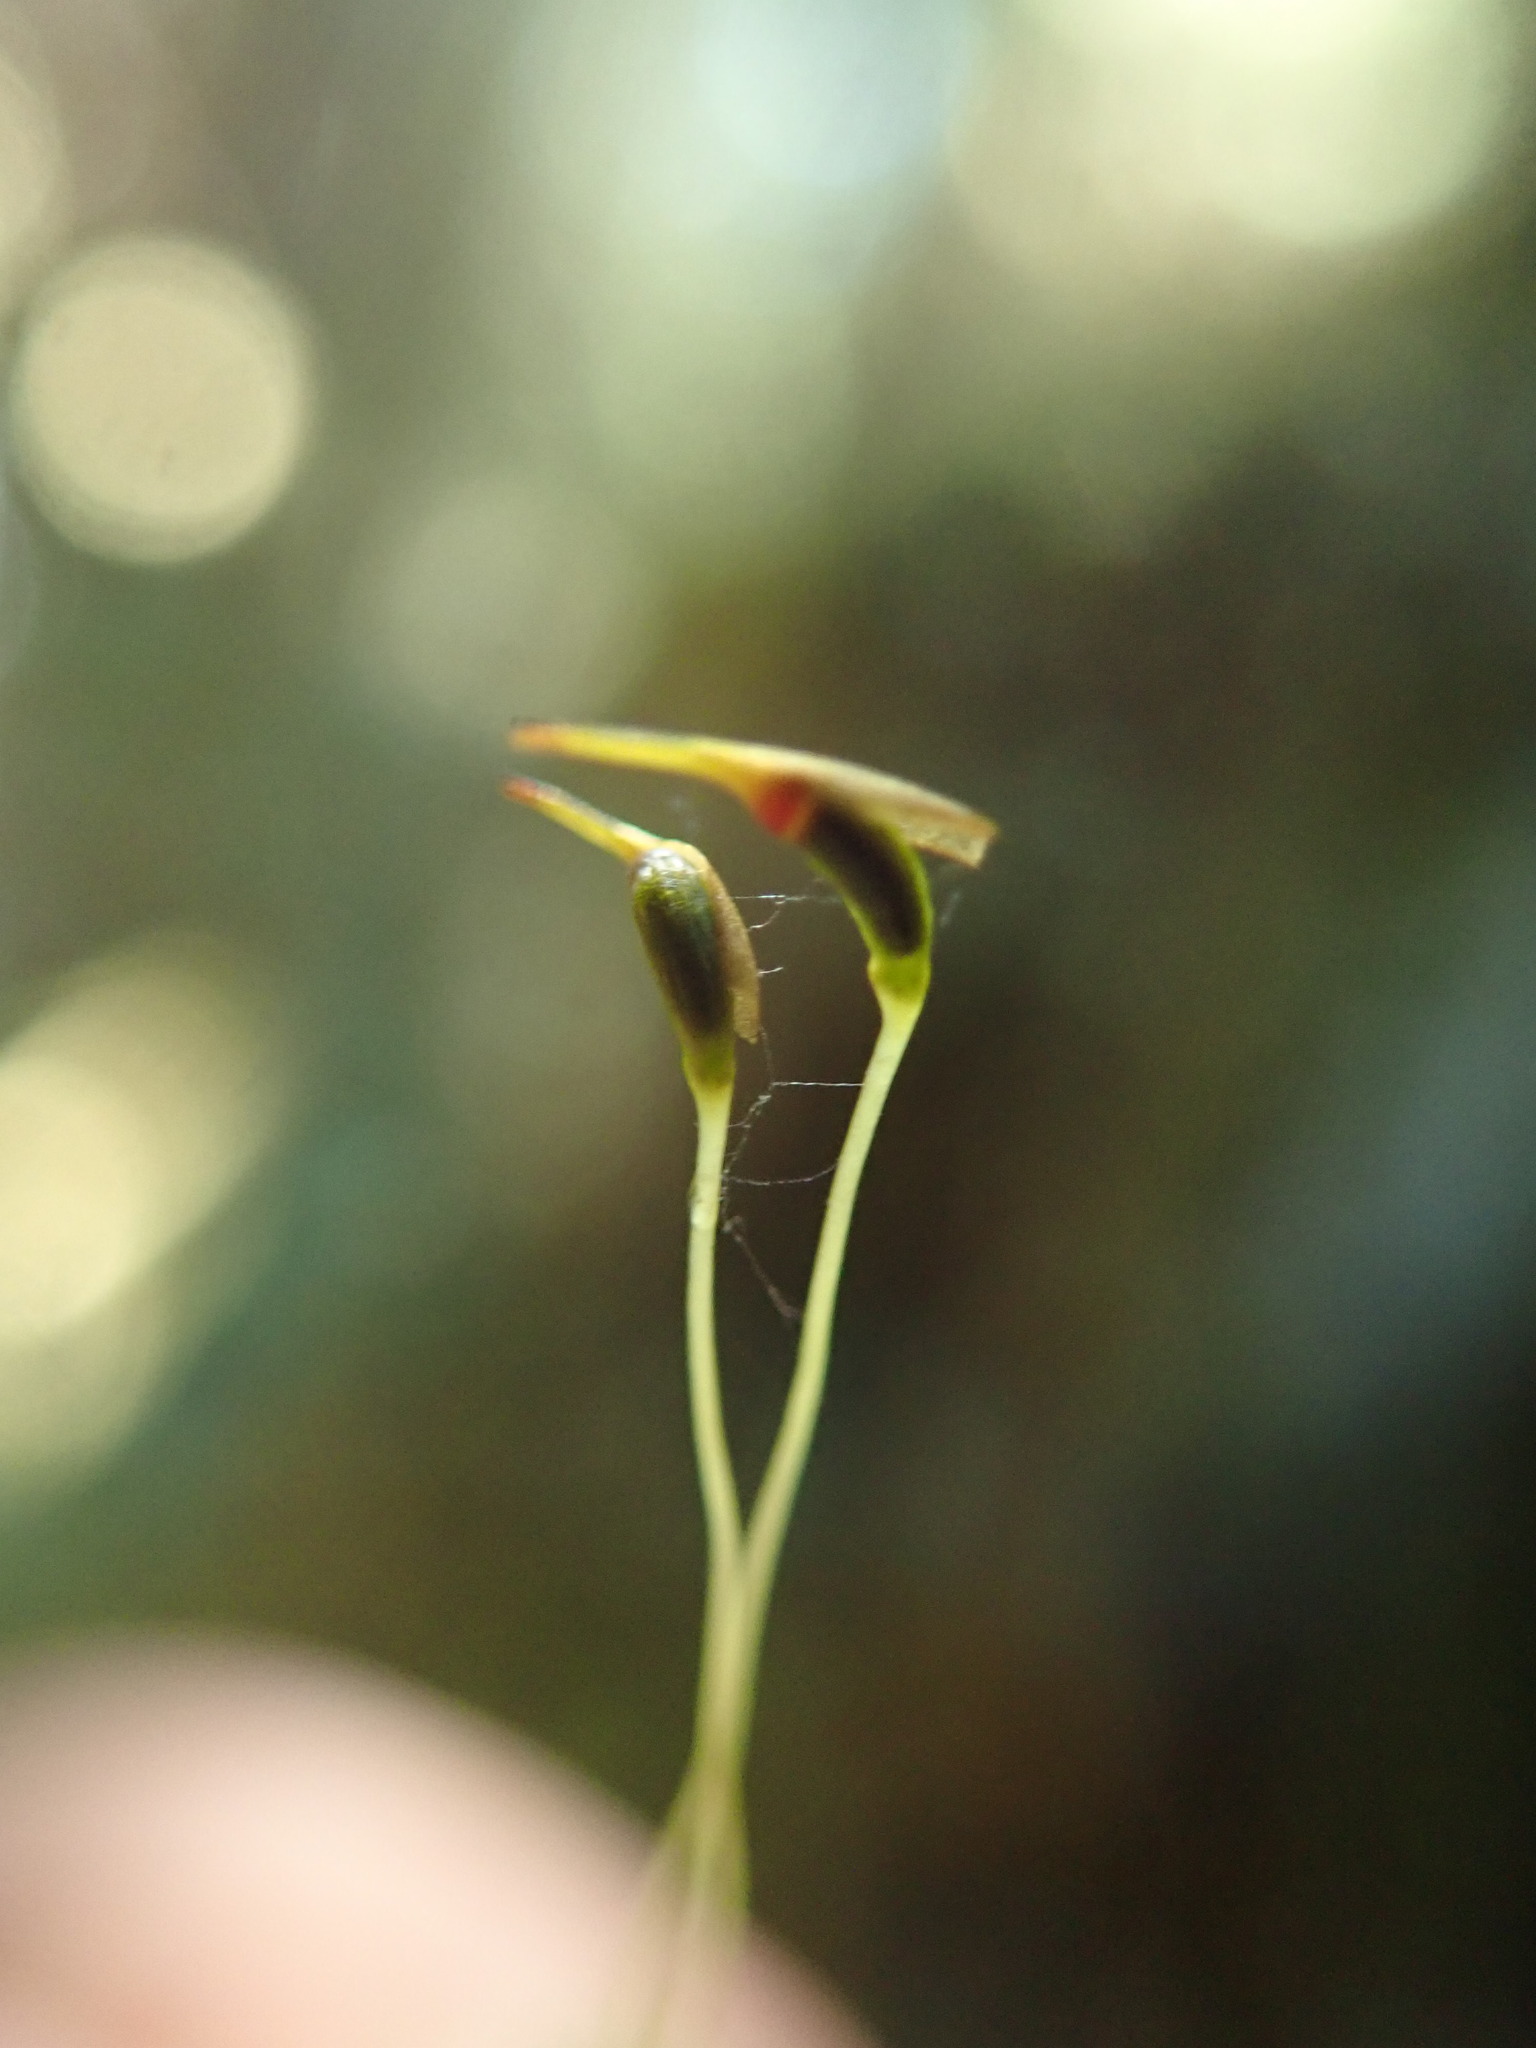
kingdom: Plantae
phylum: Bryophyta
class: Bryopsida
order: Dicranales
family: Dicranaceae
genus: Dicranum
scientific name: Dicranum fuscescens
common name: Curly heron's-bill moss
